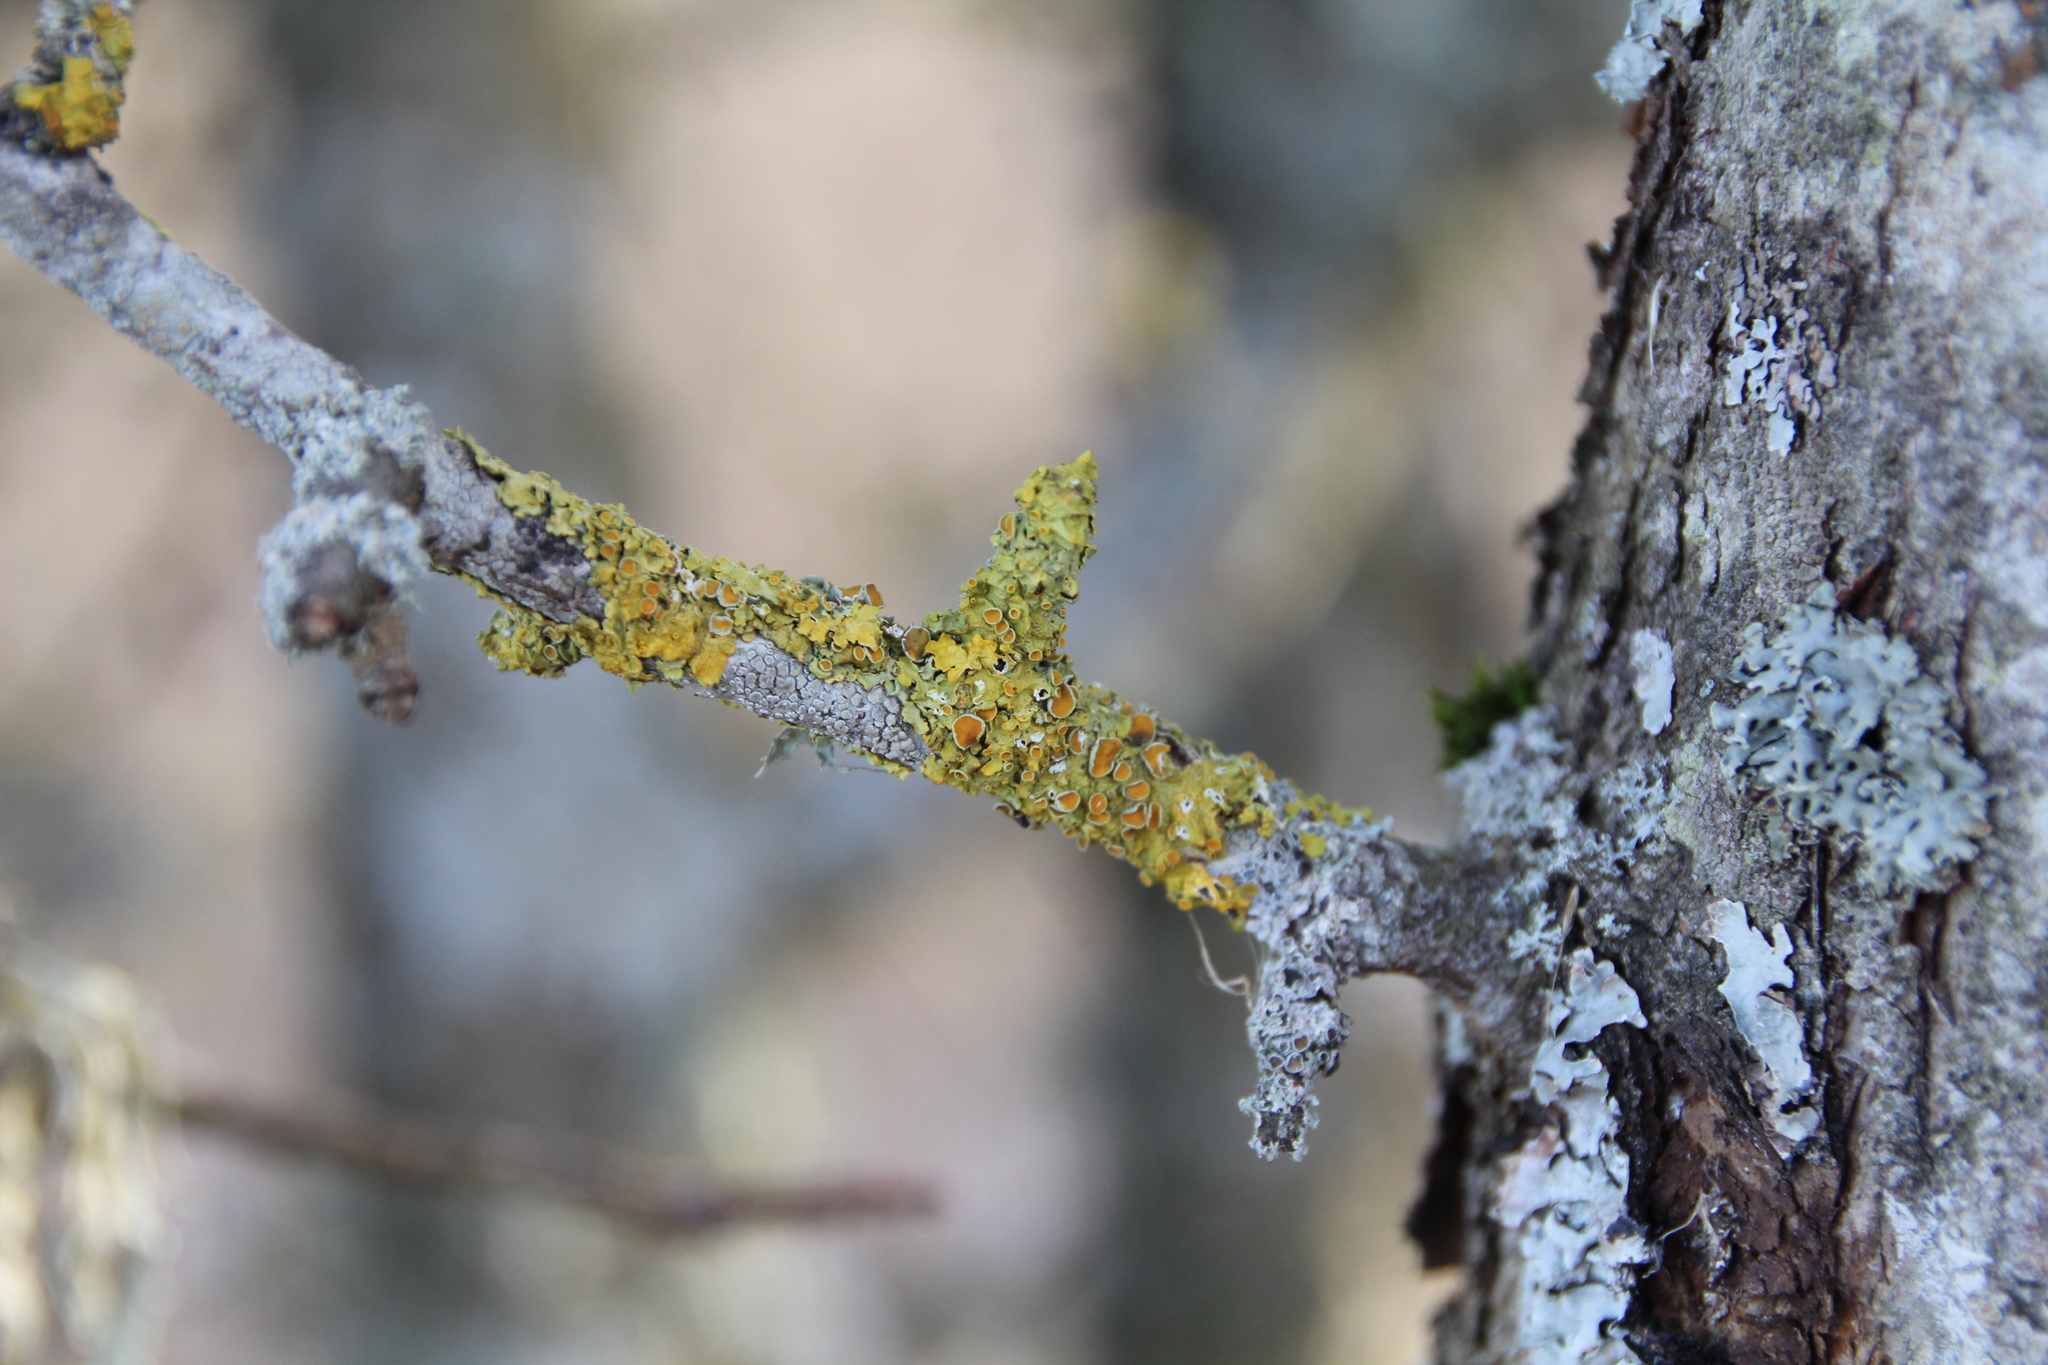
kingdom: Fungi
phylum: Ascomycota
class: Lecanoromycetes
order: Teloschistales
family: Teloschistaceae
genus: Xanthoria
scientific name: Xanthoria parietina
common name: Common orange lichen
